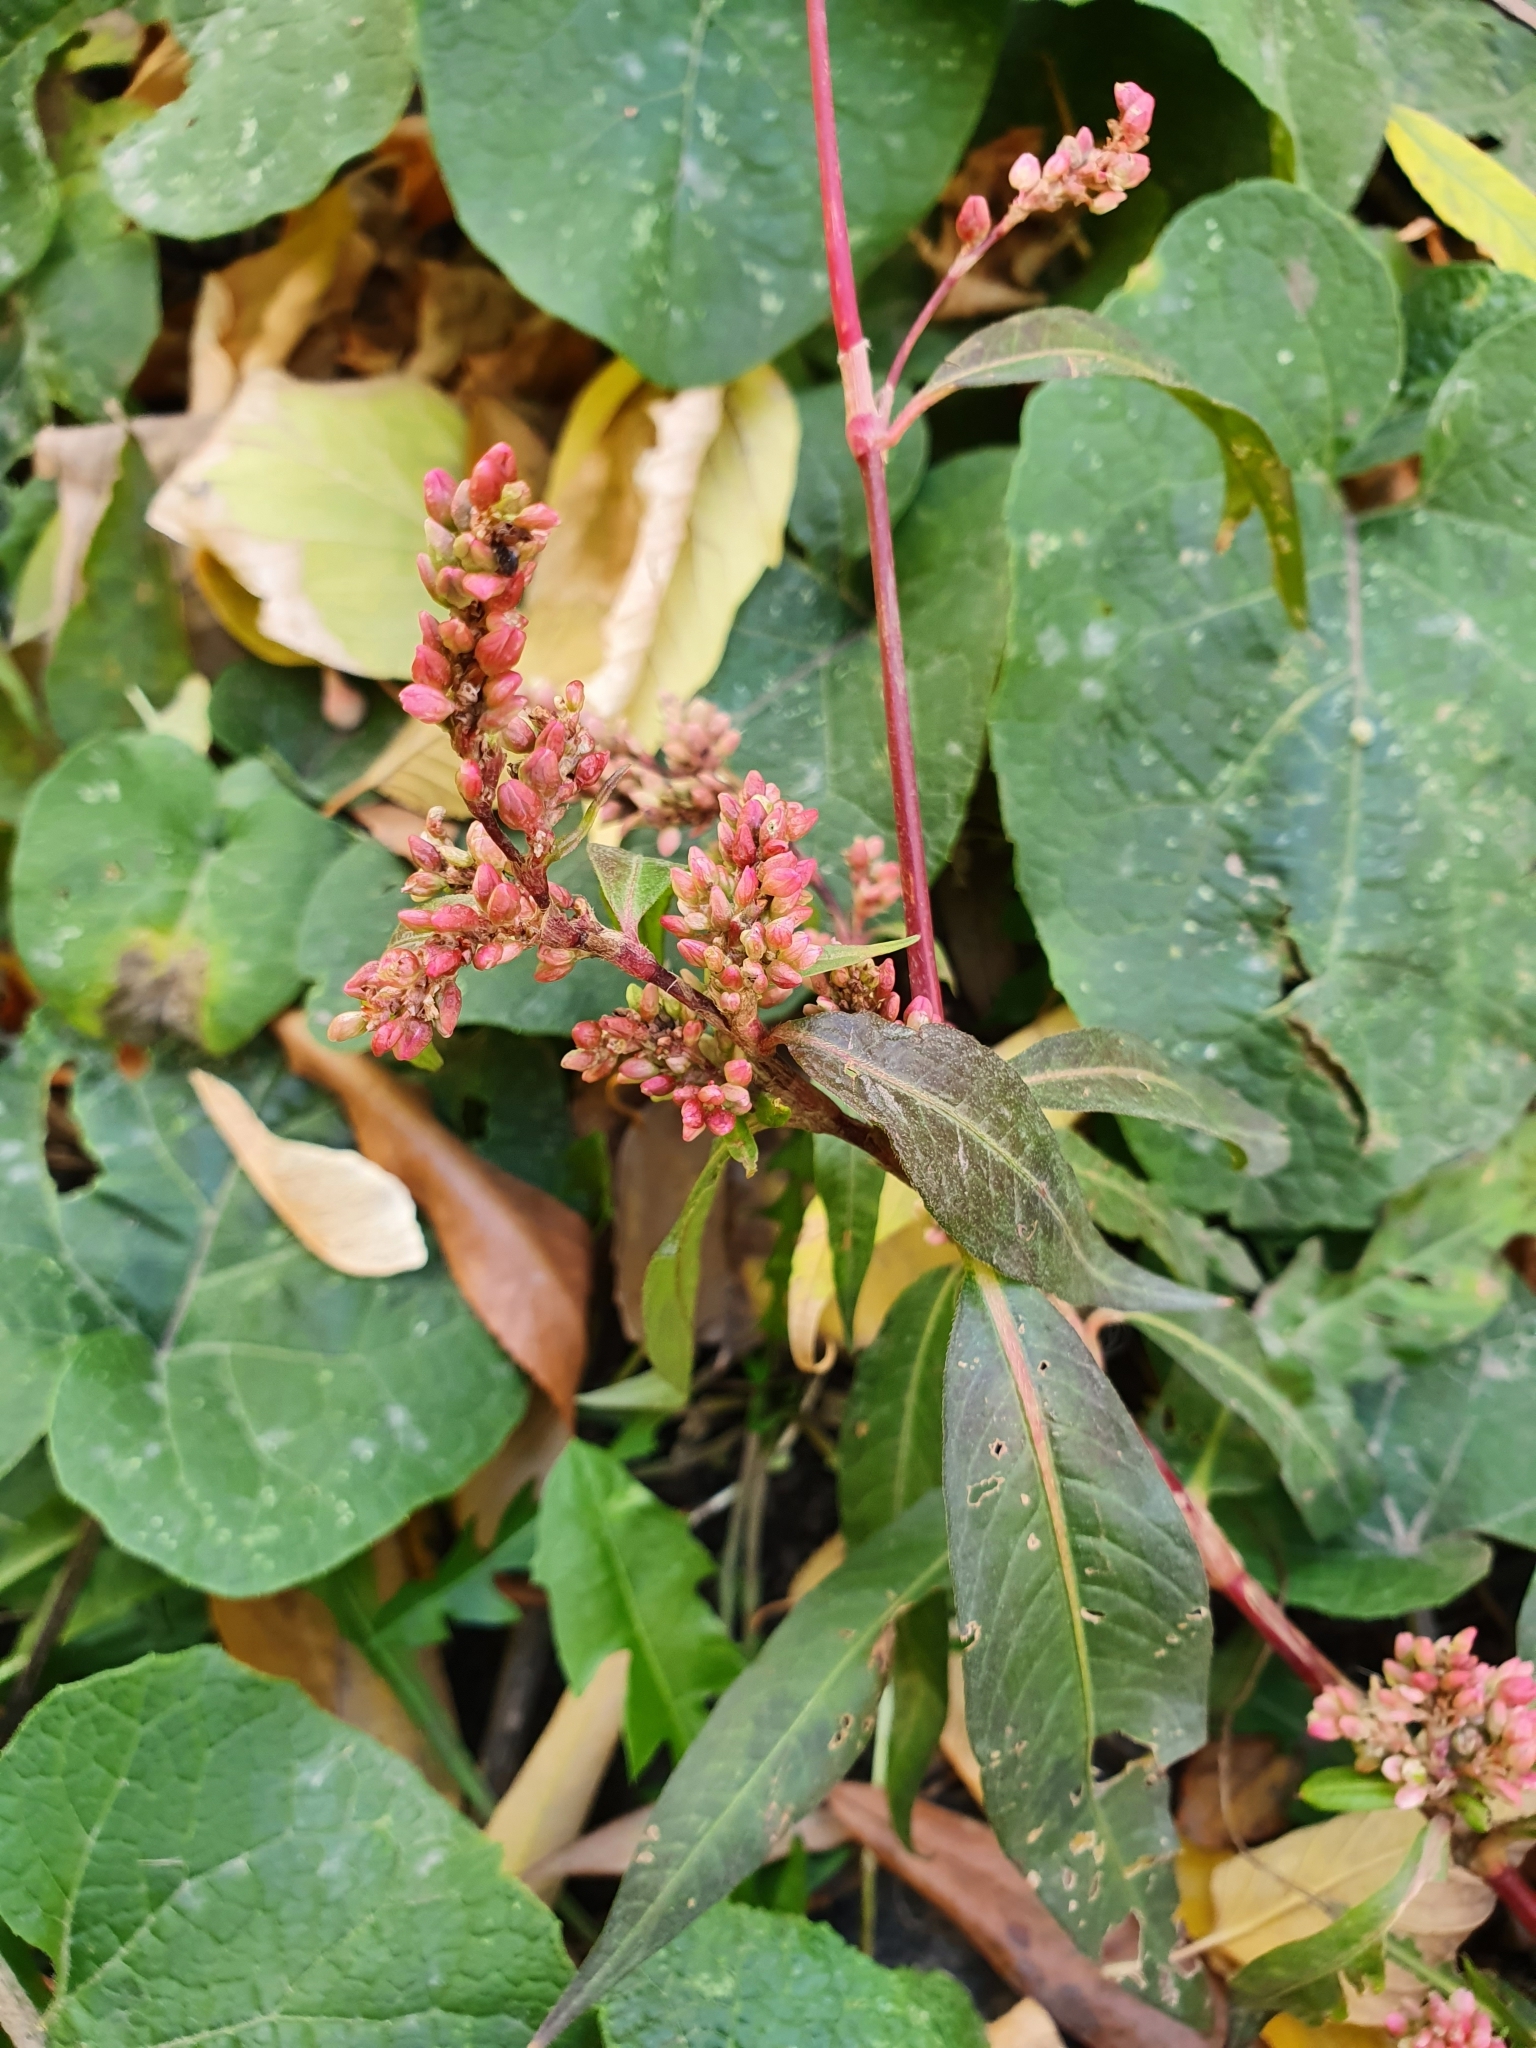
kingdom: Plantae
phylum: Tracheophyta
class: Magnoliopsida
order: Caryophyllales
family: Polygonaceae
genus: Persicaria
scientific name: Persicaria maculosa
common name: Redshank
